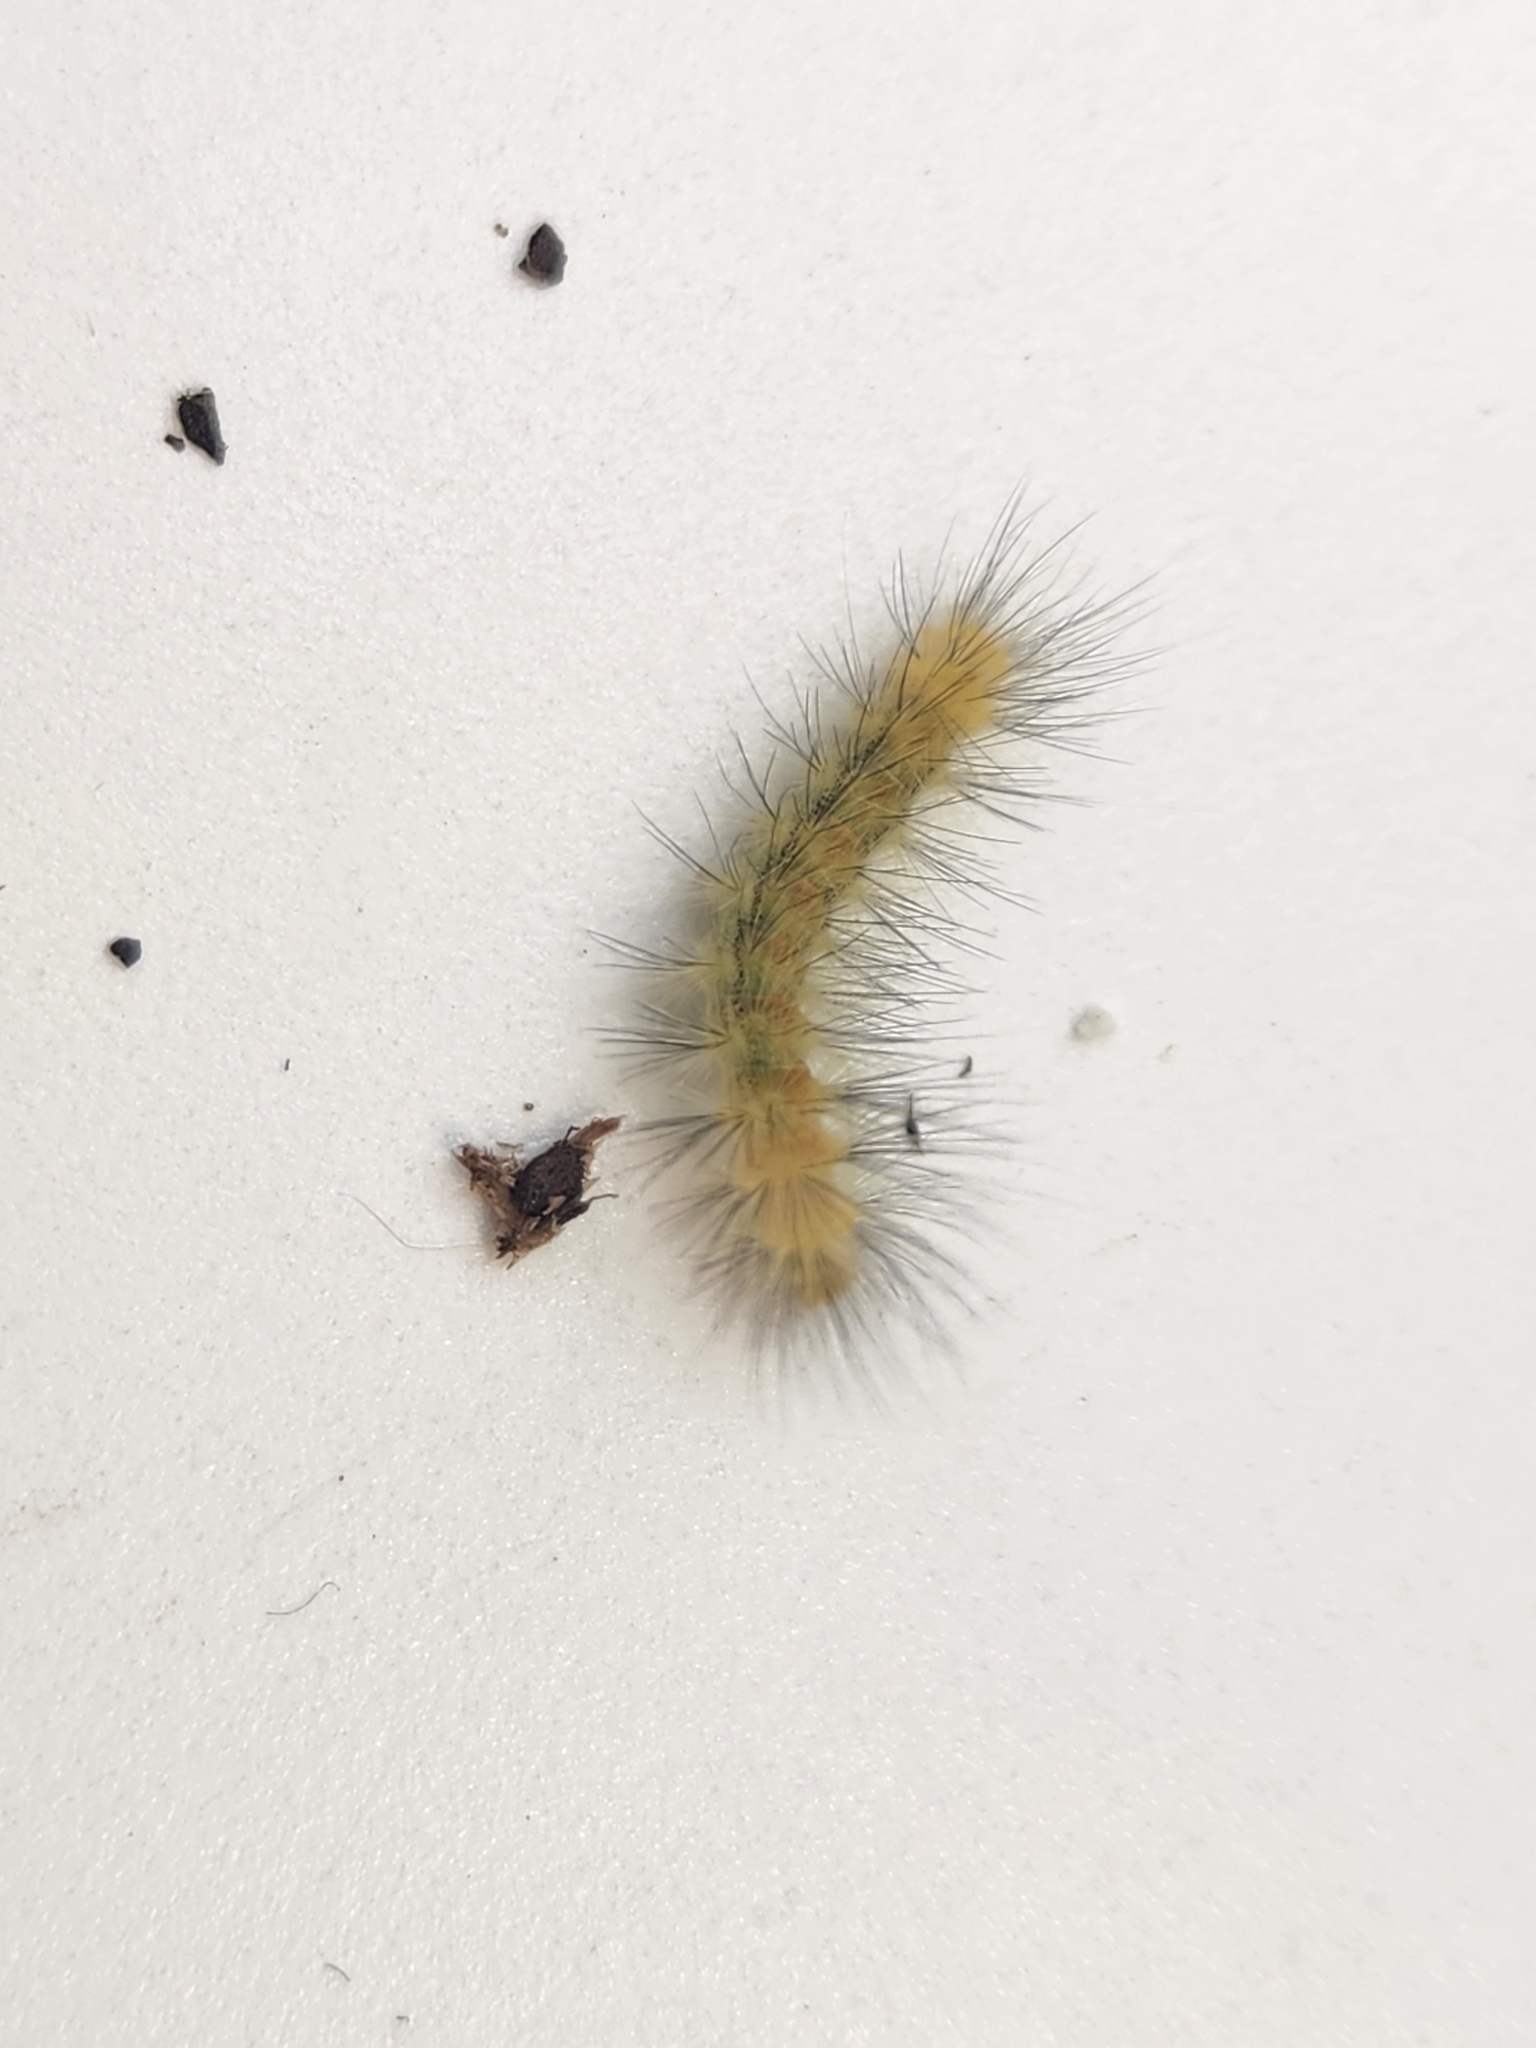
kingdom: Animalia
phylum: Arthropoda
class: Insecta
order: Lepidoptera
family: Erebidae
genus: Spilosoma
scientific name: Spilosoma virginica
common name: Virginia tiger moth
